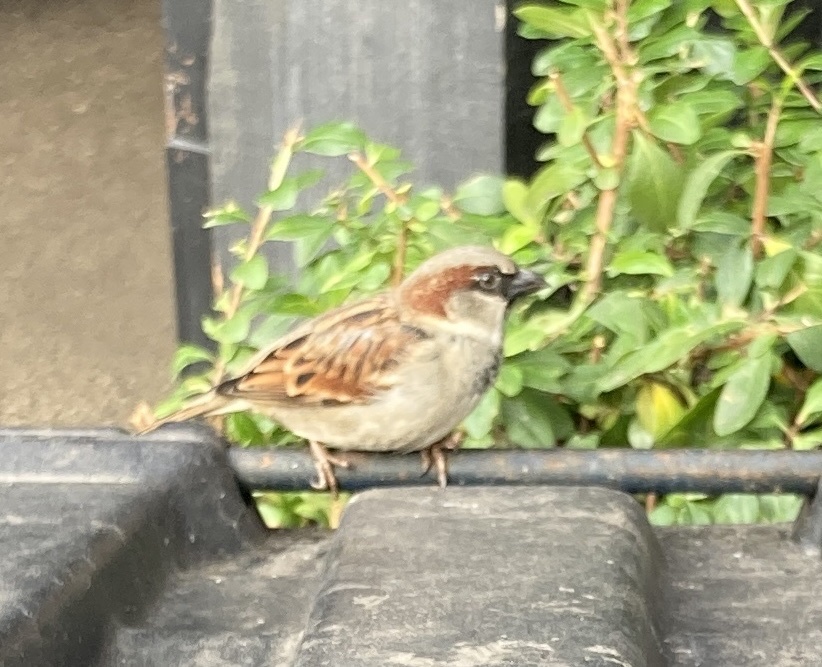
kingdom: Animalia
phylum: Chordata
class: Aves
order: Passeriformes
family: Passeridae
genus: Passer
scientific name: Passer domesticus
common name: House sparrow
